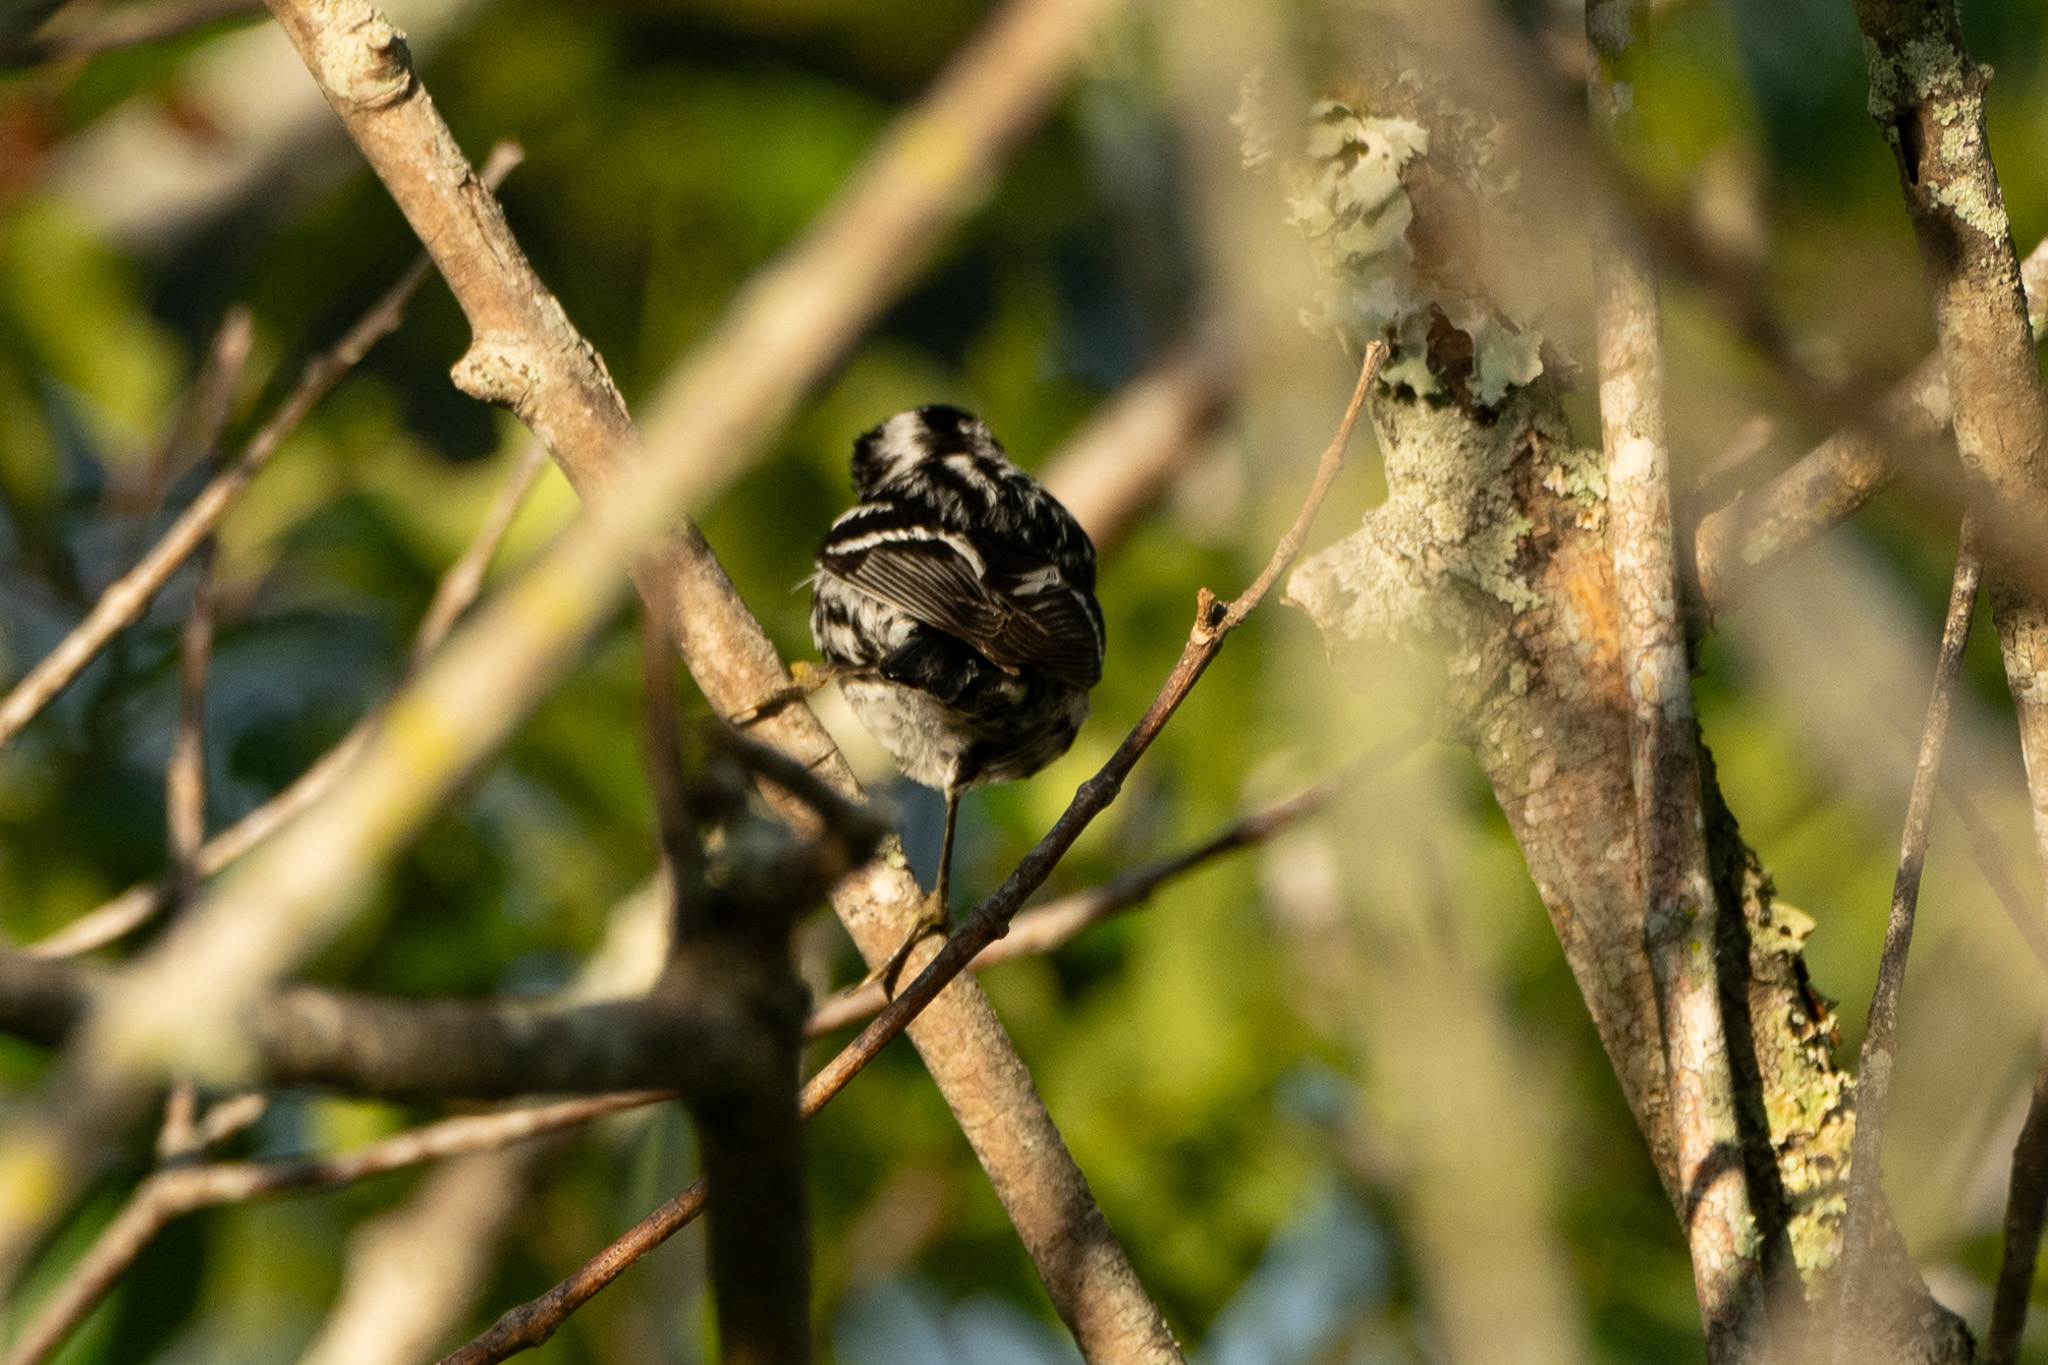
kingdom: Animalia
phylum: Chordata
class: Aves
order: Passeriformes
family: Parulidae
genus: Mniotilta
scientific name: Mniotilta varia
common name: Black-and-white warbler
